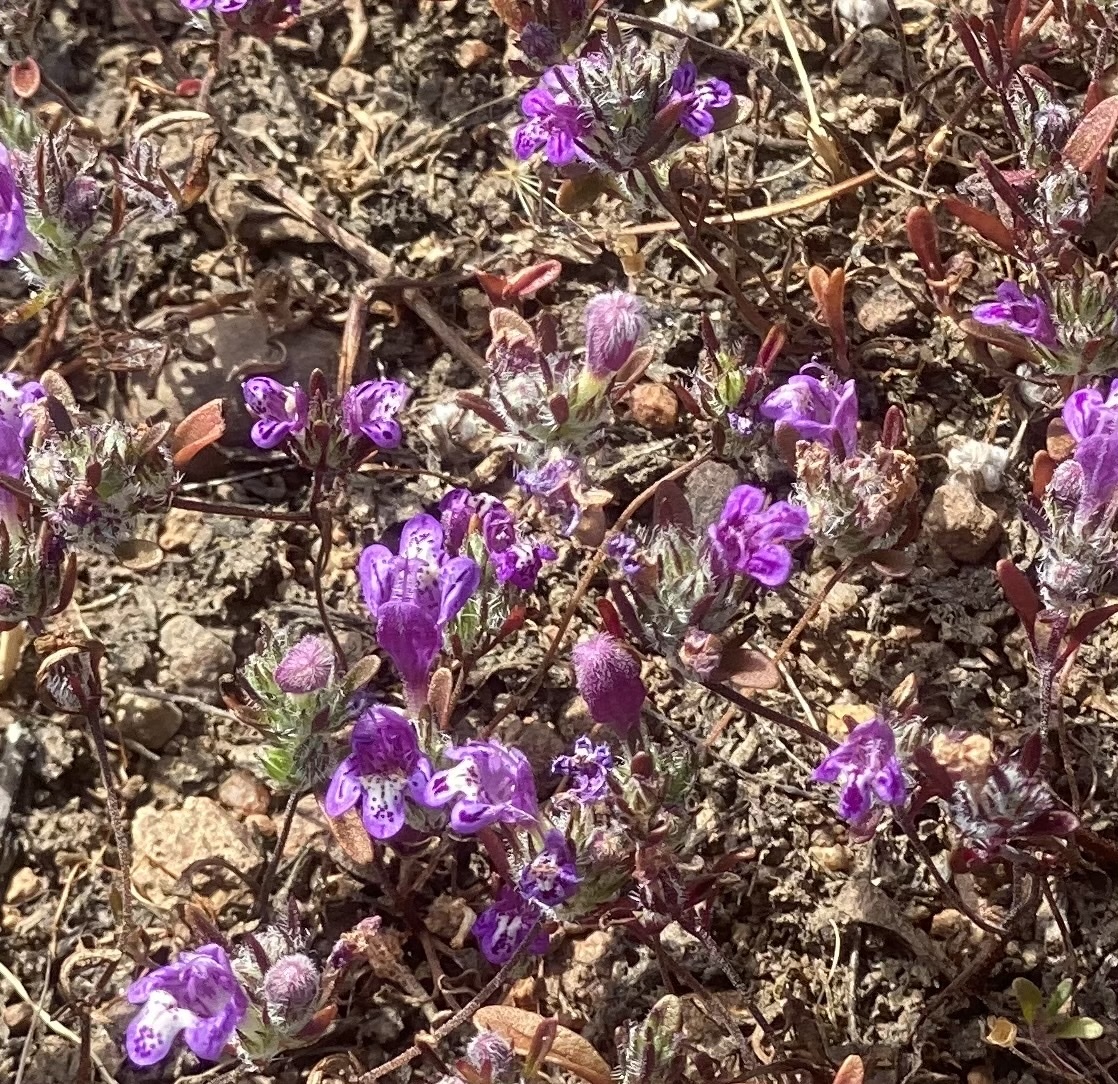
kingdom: Plantae
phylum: Tracheophyta
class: Magnoliopsida
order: Lamiales
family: Lamiaceae
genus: Pogogyne
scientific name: Pogogyne abramsii
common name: San diego mesa-mint
